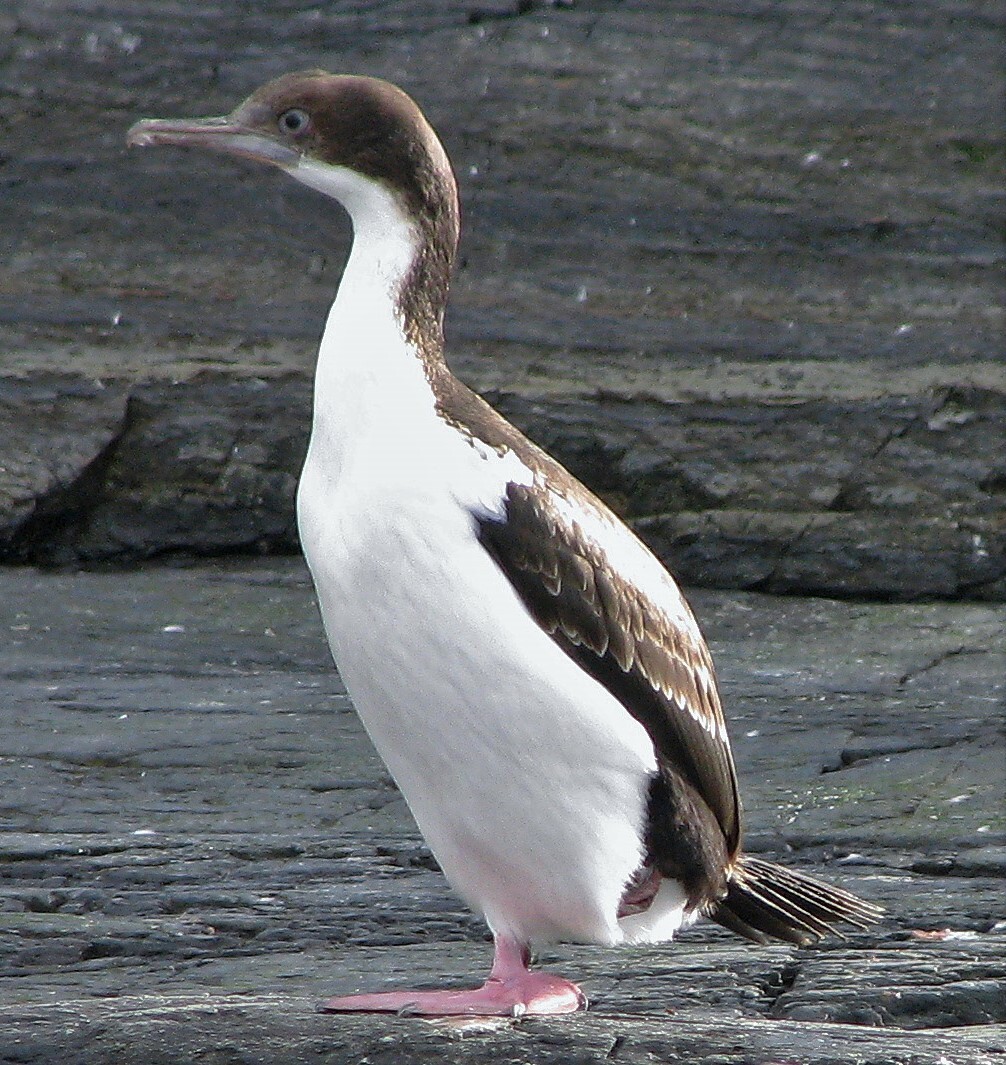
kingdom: Animalia
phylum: Chordata
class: Aves
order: Suliformes
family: Phalacrocoracidae
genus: Leucocarbo
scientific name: Leucocarbo atriceps
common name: Imperial shag
